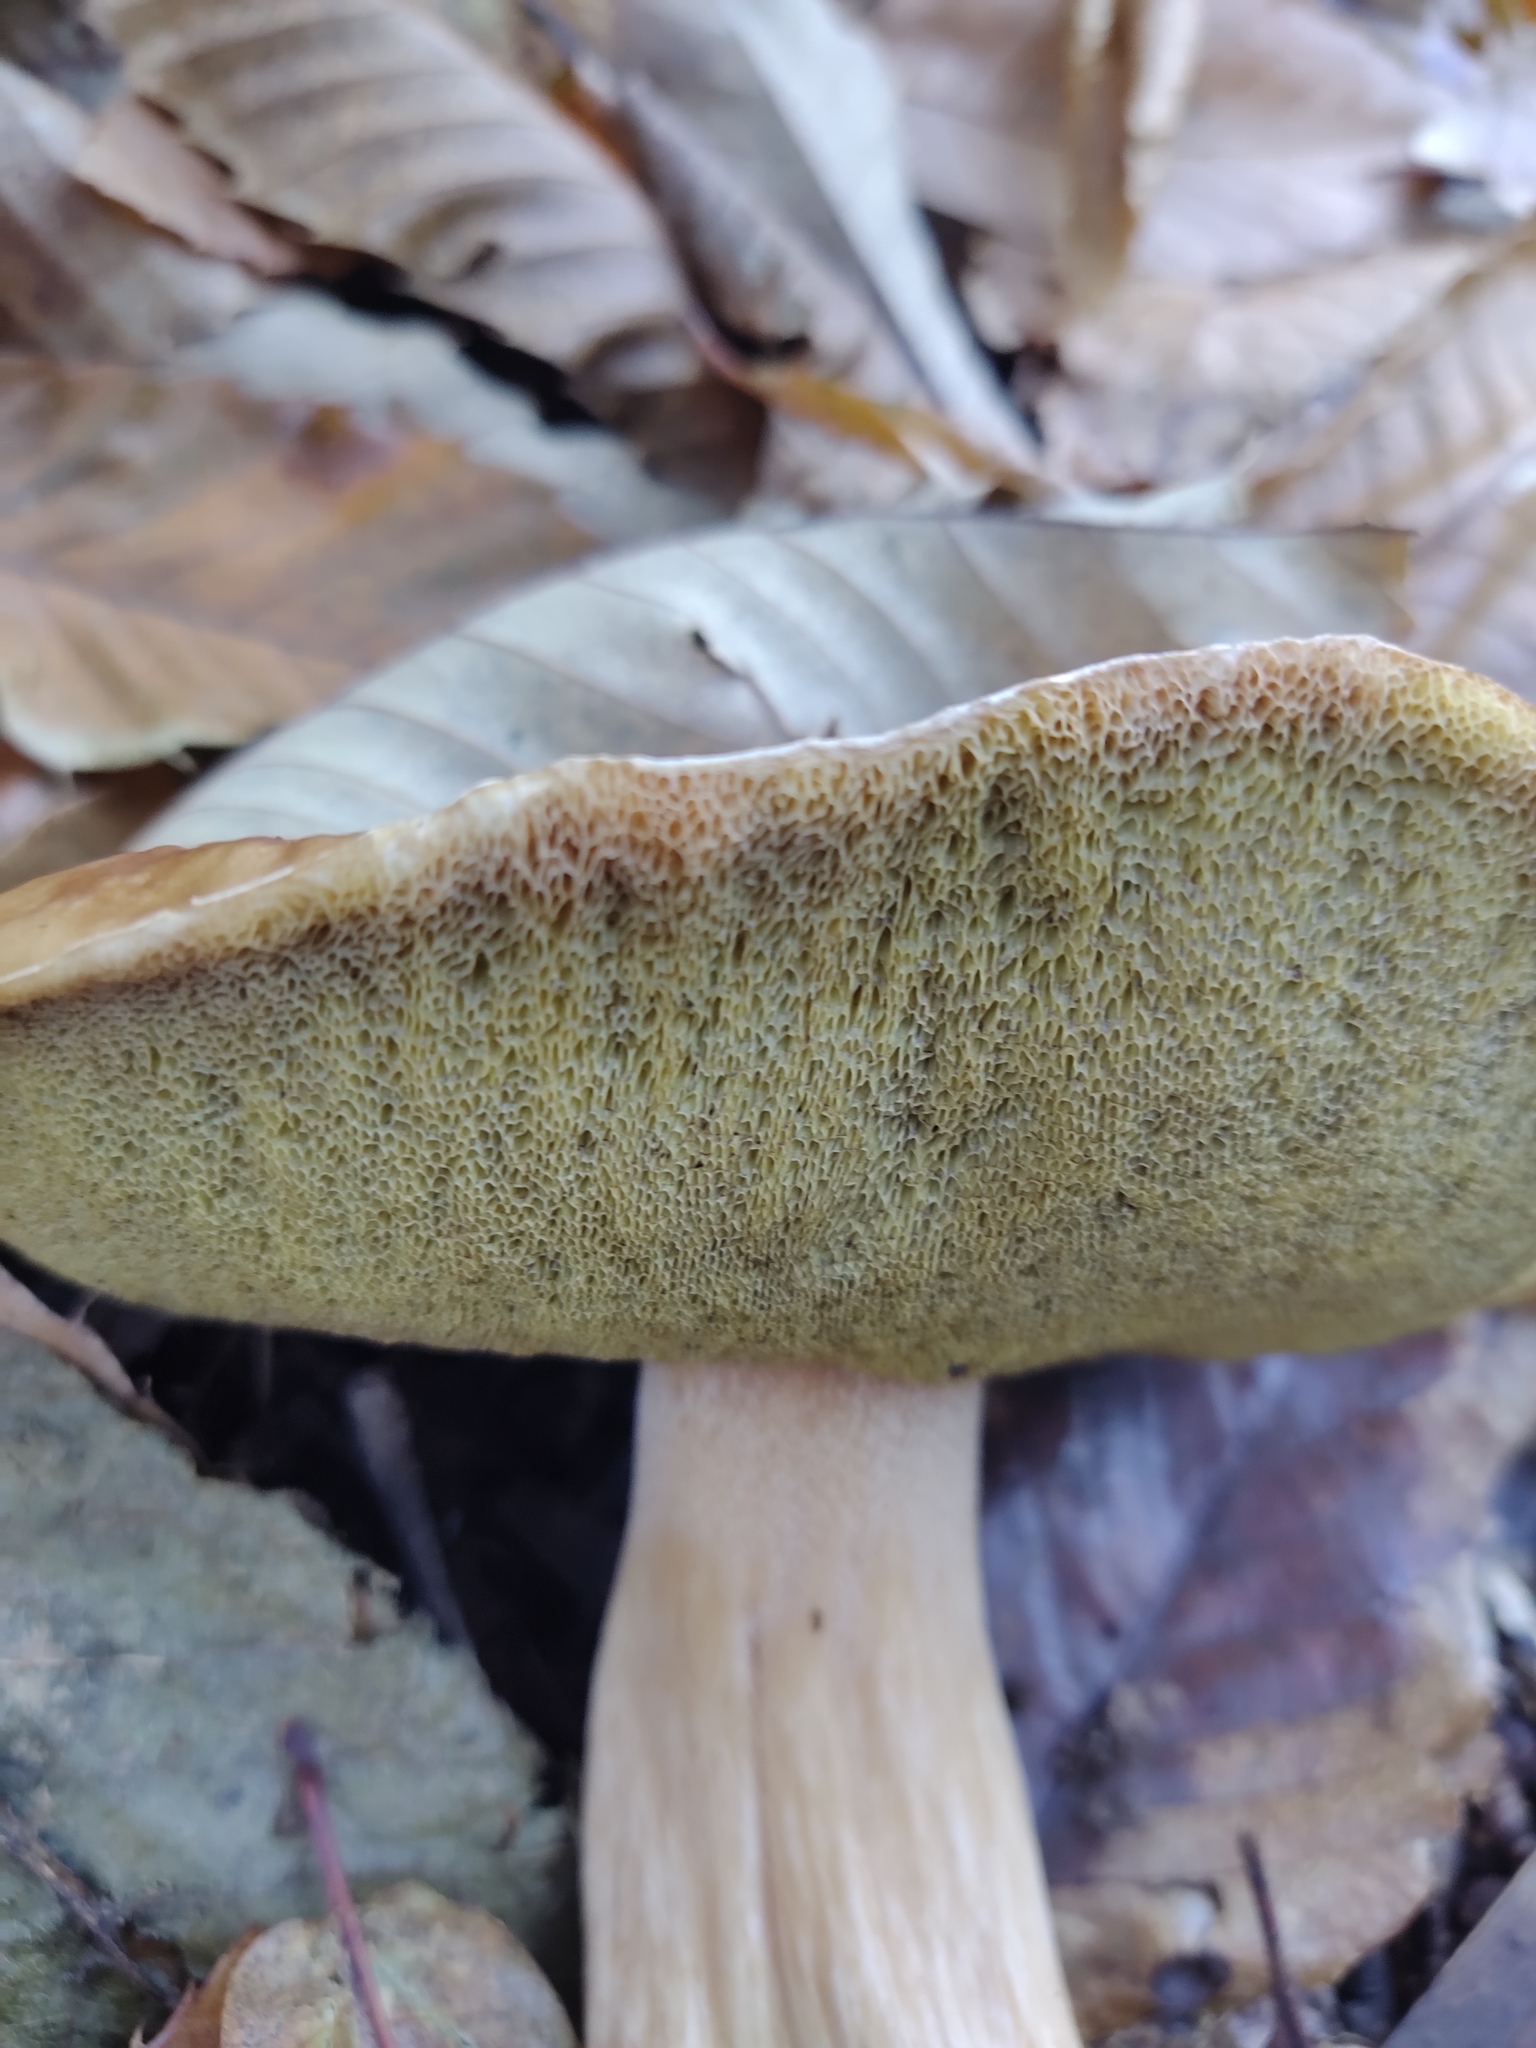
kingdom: Fungi
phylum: Basidiomycota
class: Agaricomycetes
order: Boletales
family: Boletaceae
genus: Boletus
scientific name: Boletus edulis
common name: Cep
